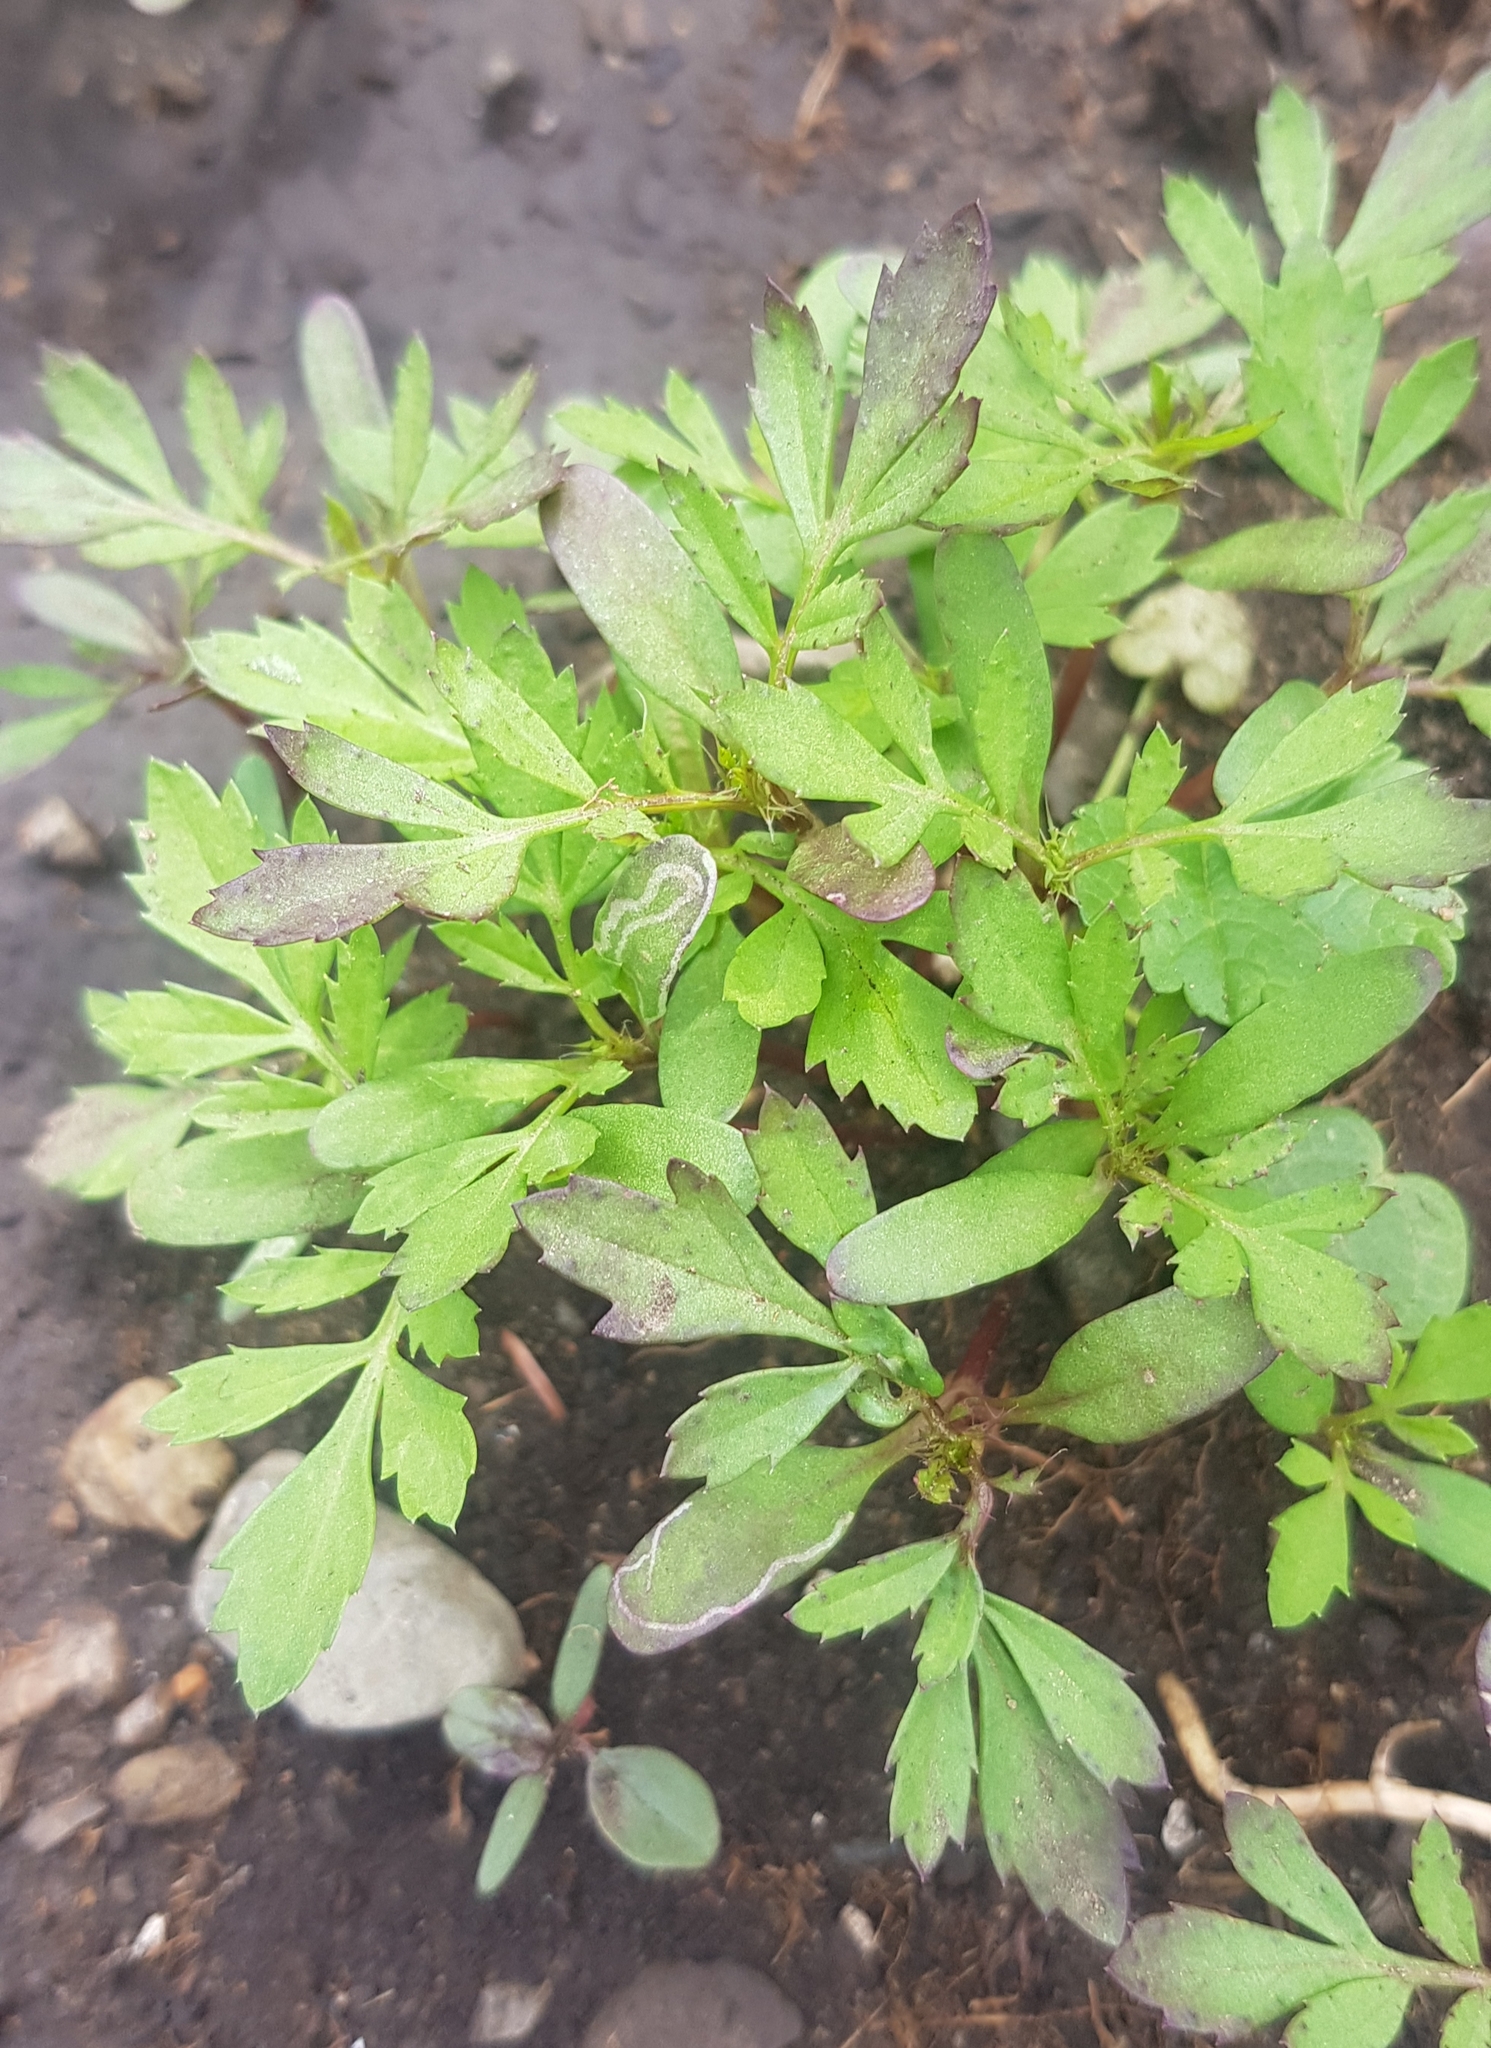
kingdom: Plantae
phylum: Tracheophyta
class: Magnoliopsida
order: Asterales
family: Asteraceae
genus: Bidens
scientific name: Bidens tripartita
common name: Trifid bur-marigold
